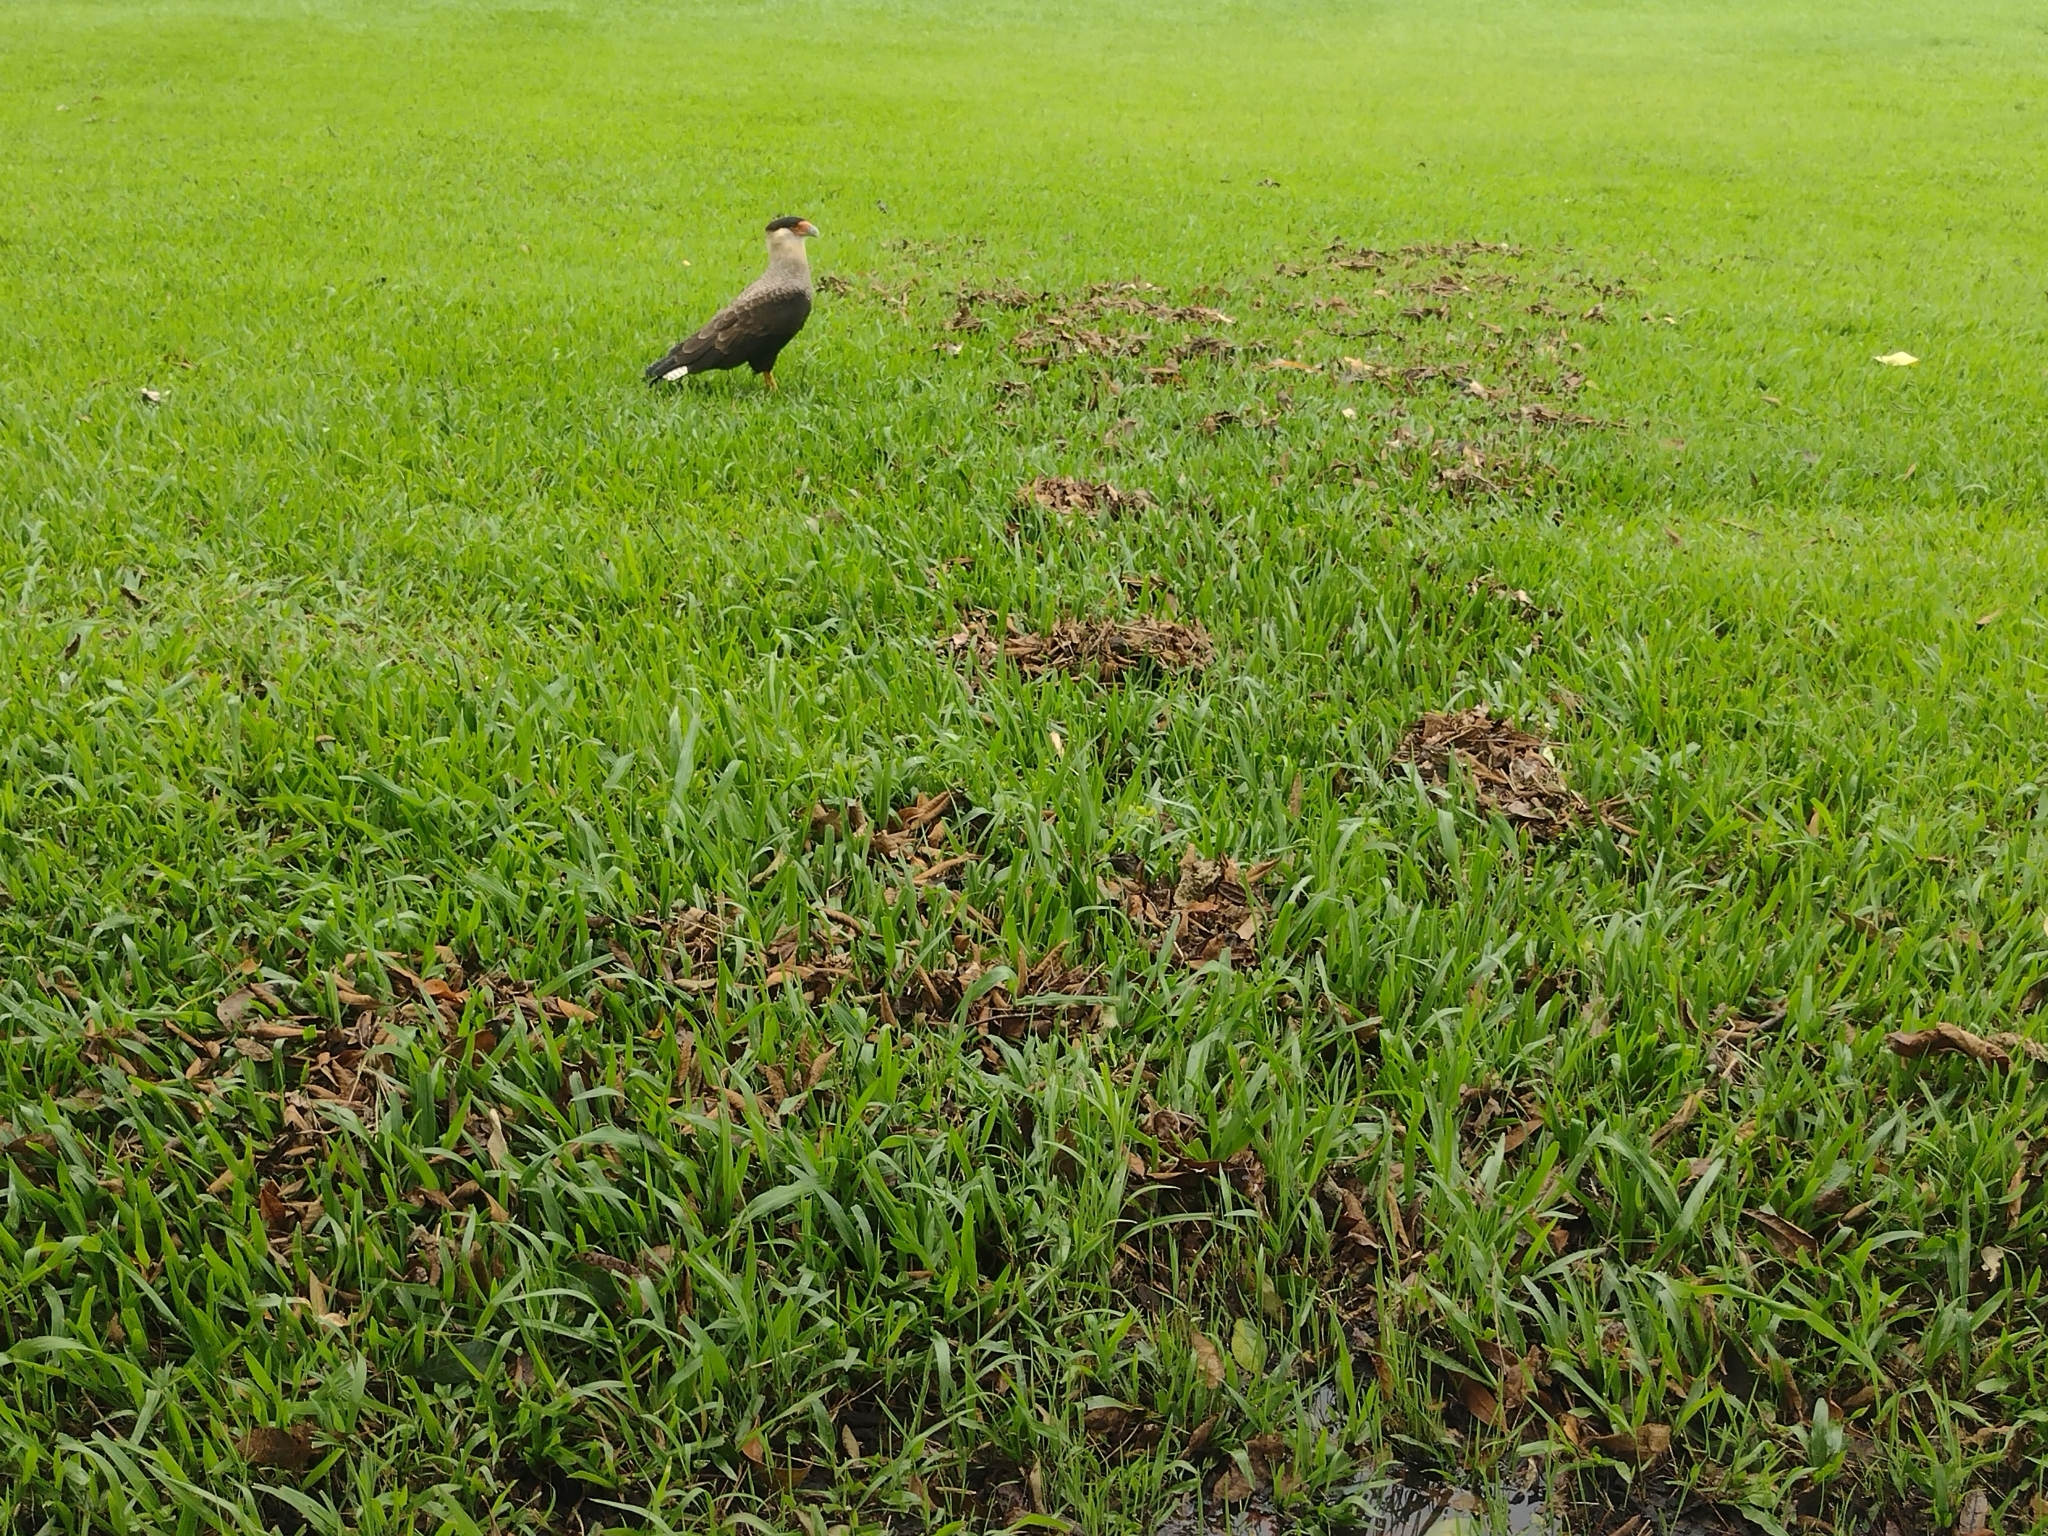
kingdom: Animalia
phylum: Chordata
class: Aves
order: Falconiformes
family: Falconidae
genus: Caracara
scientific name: Caracara plancus
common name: Southern caracara
